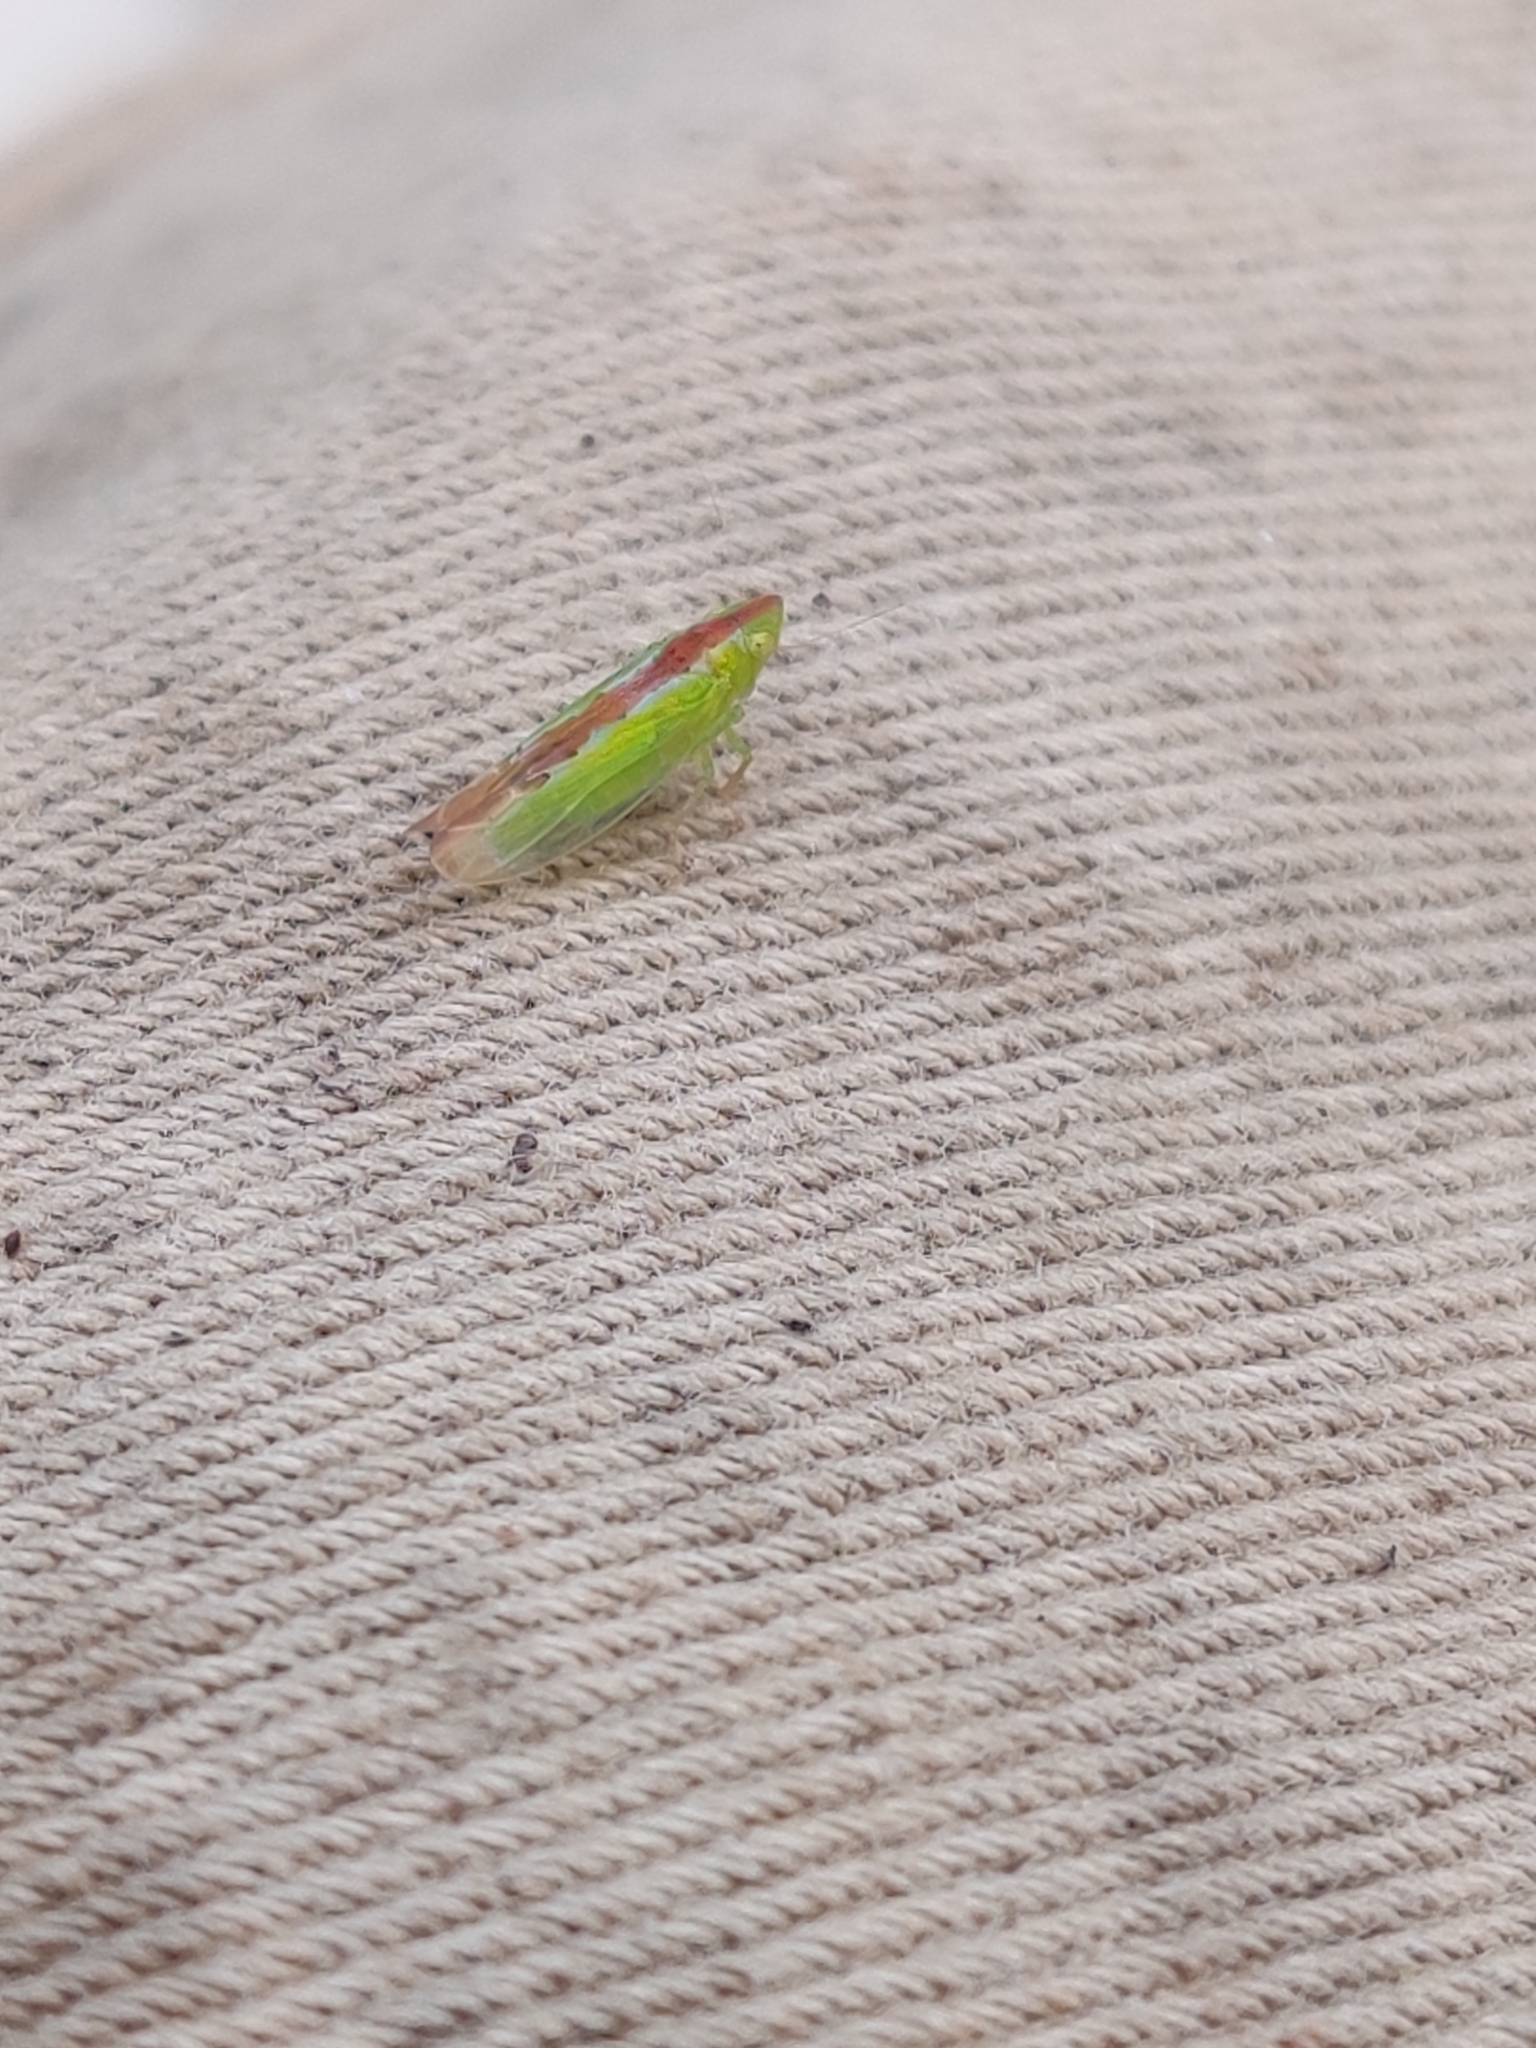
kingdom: Animalia
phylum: Arthropoda
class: Insecta
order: Hemiptera
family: Cicadellidae
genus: Neocoelidia
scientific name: Neocoelidia pulchella
